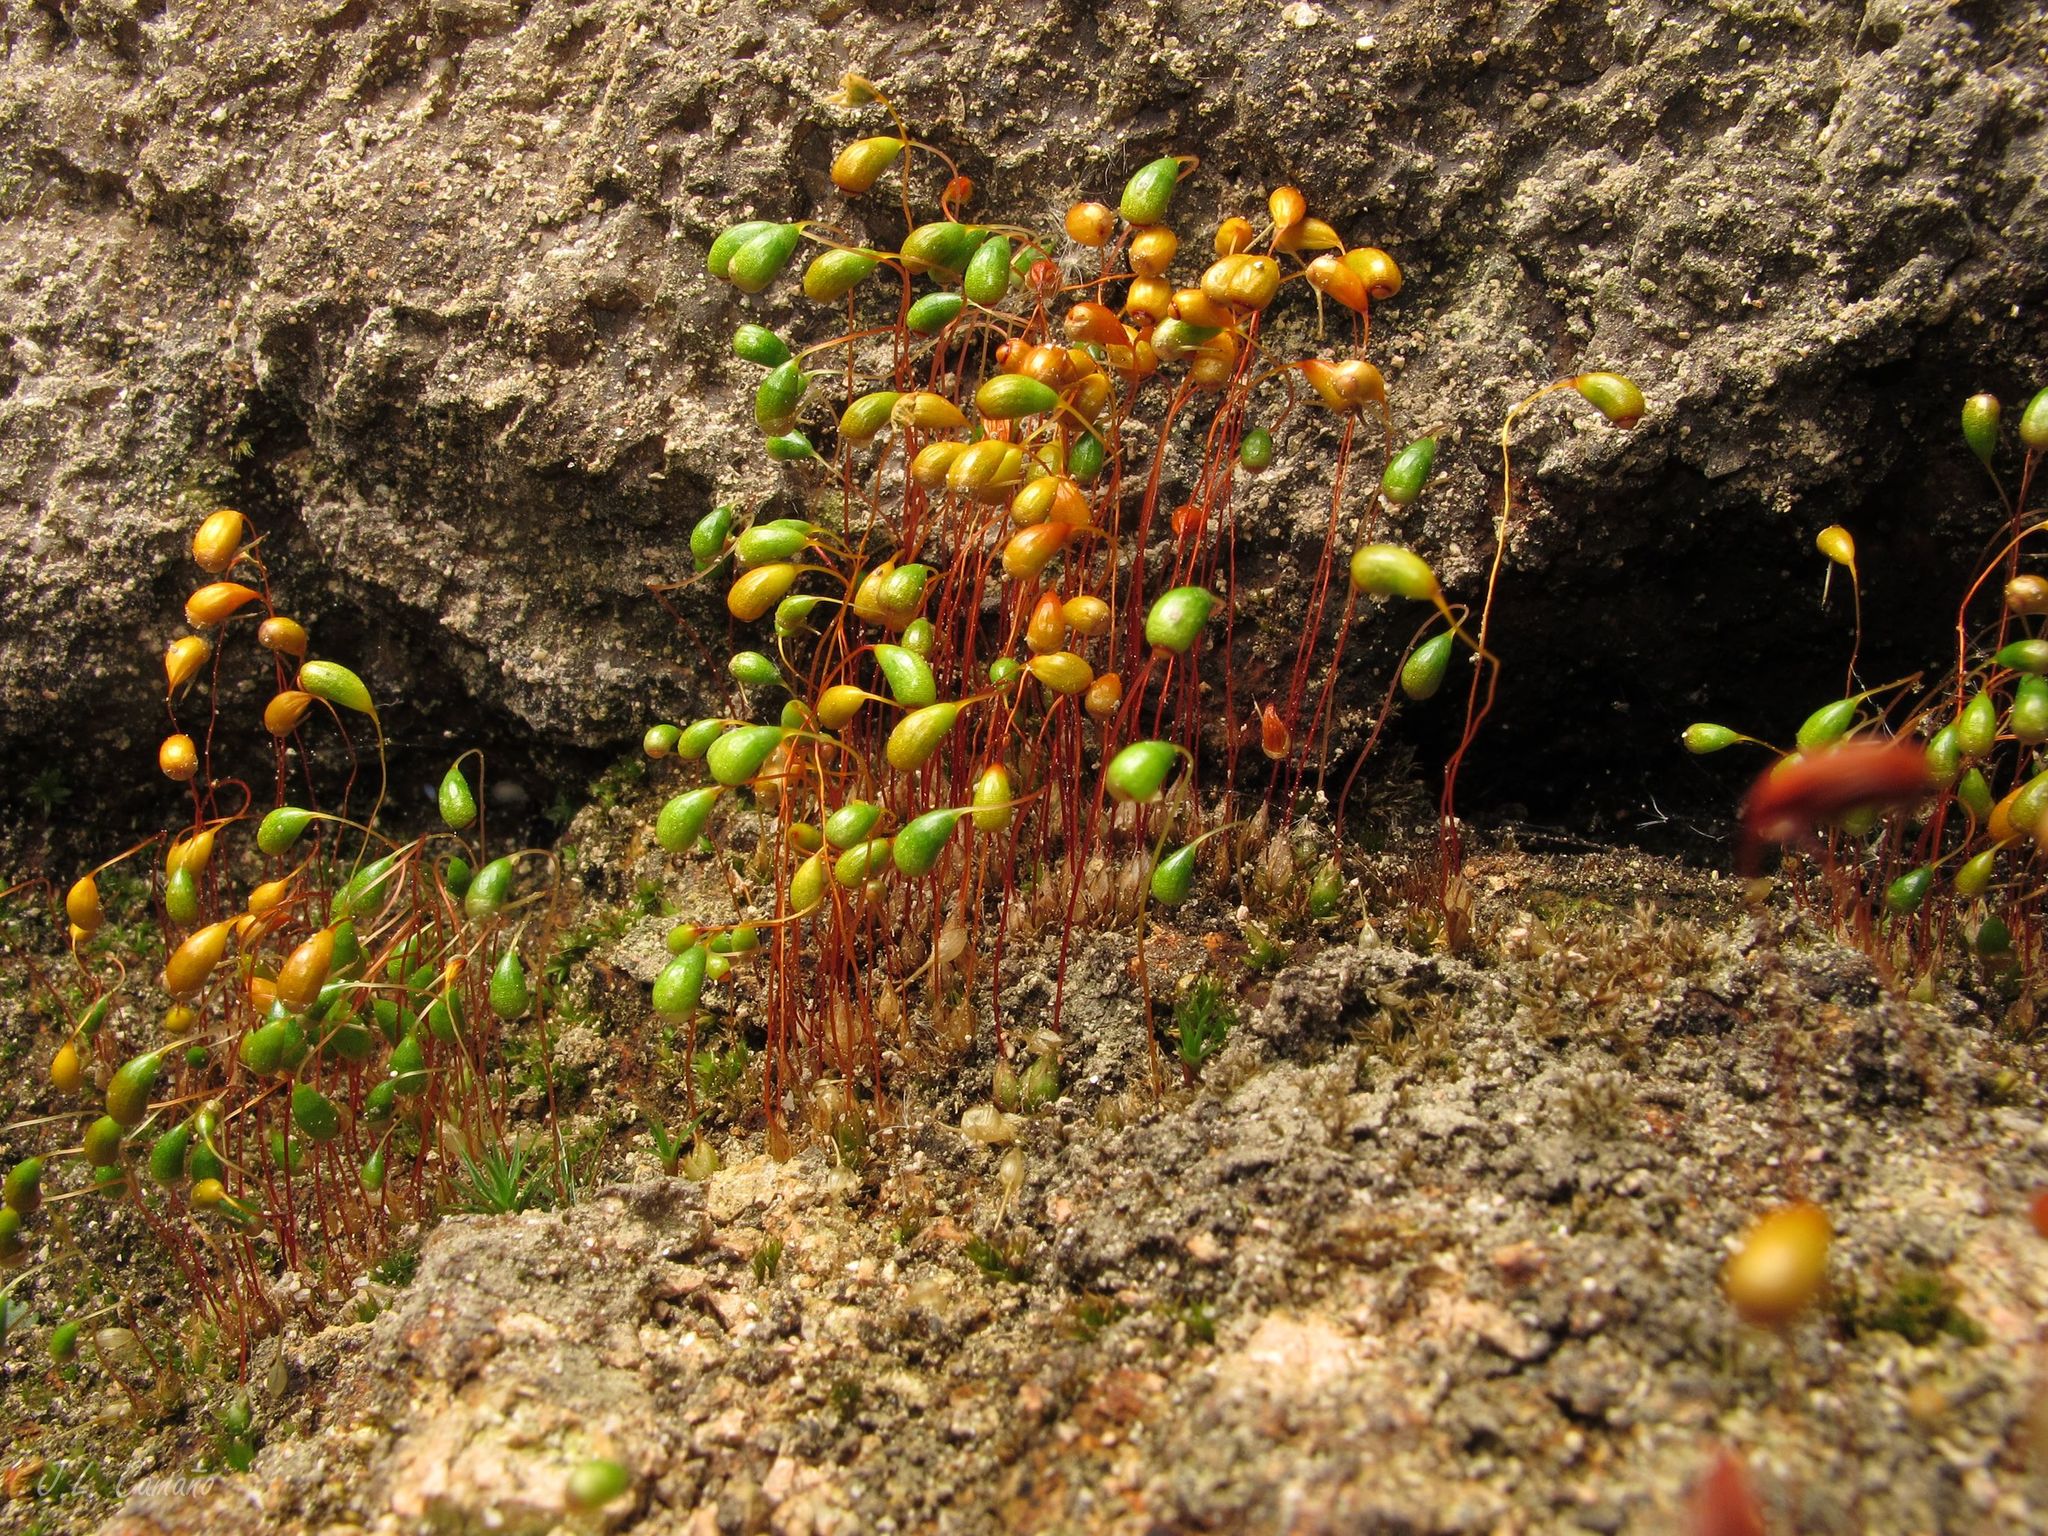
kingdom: Plantae
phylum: Bryophyta
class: Bryopsida
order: Funariales
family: Funariaceae
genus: Funaria
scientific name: Funaria hygrometrica
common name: Common cord moss
